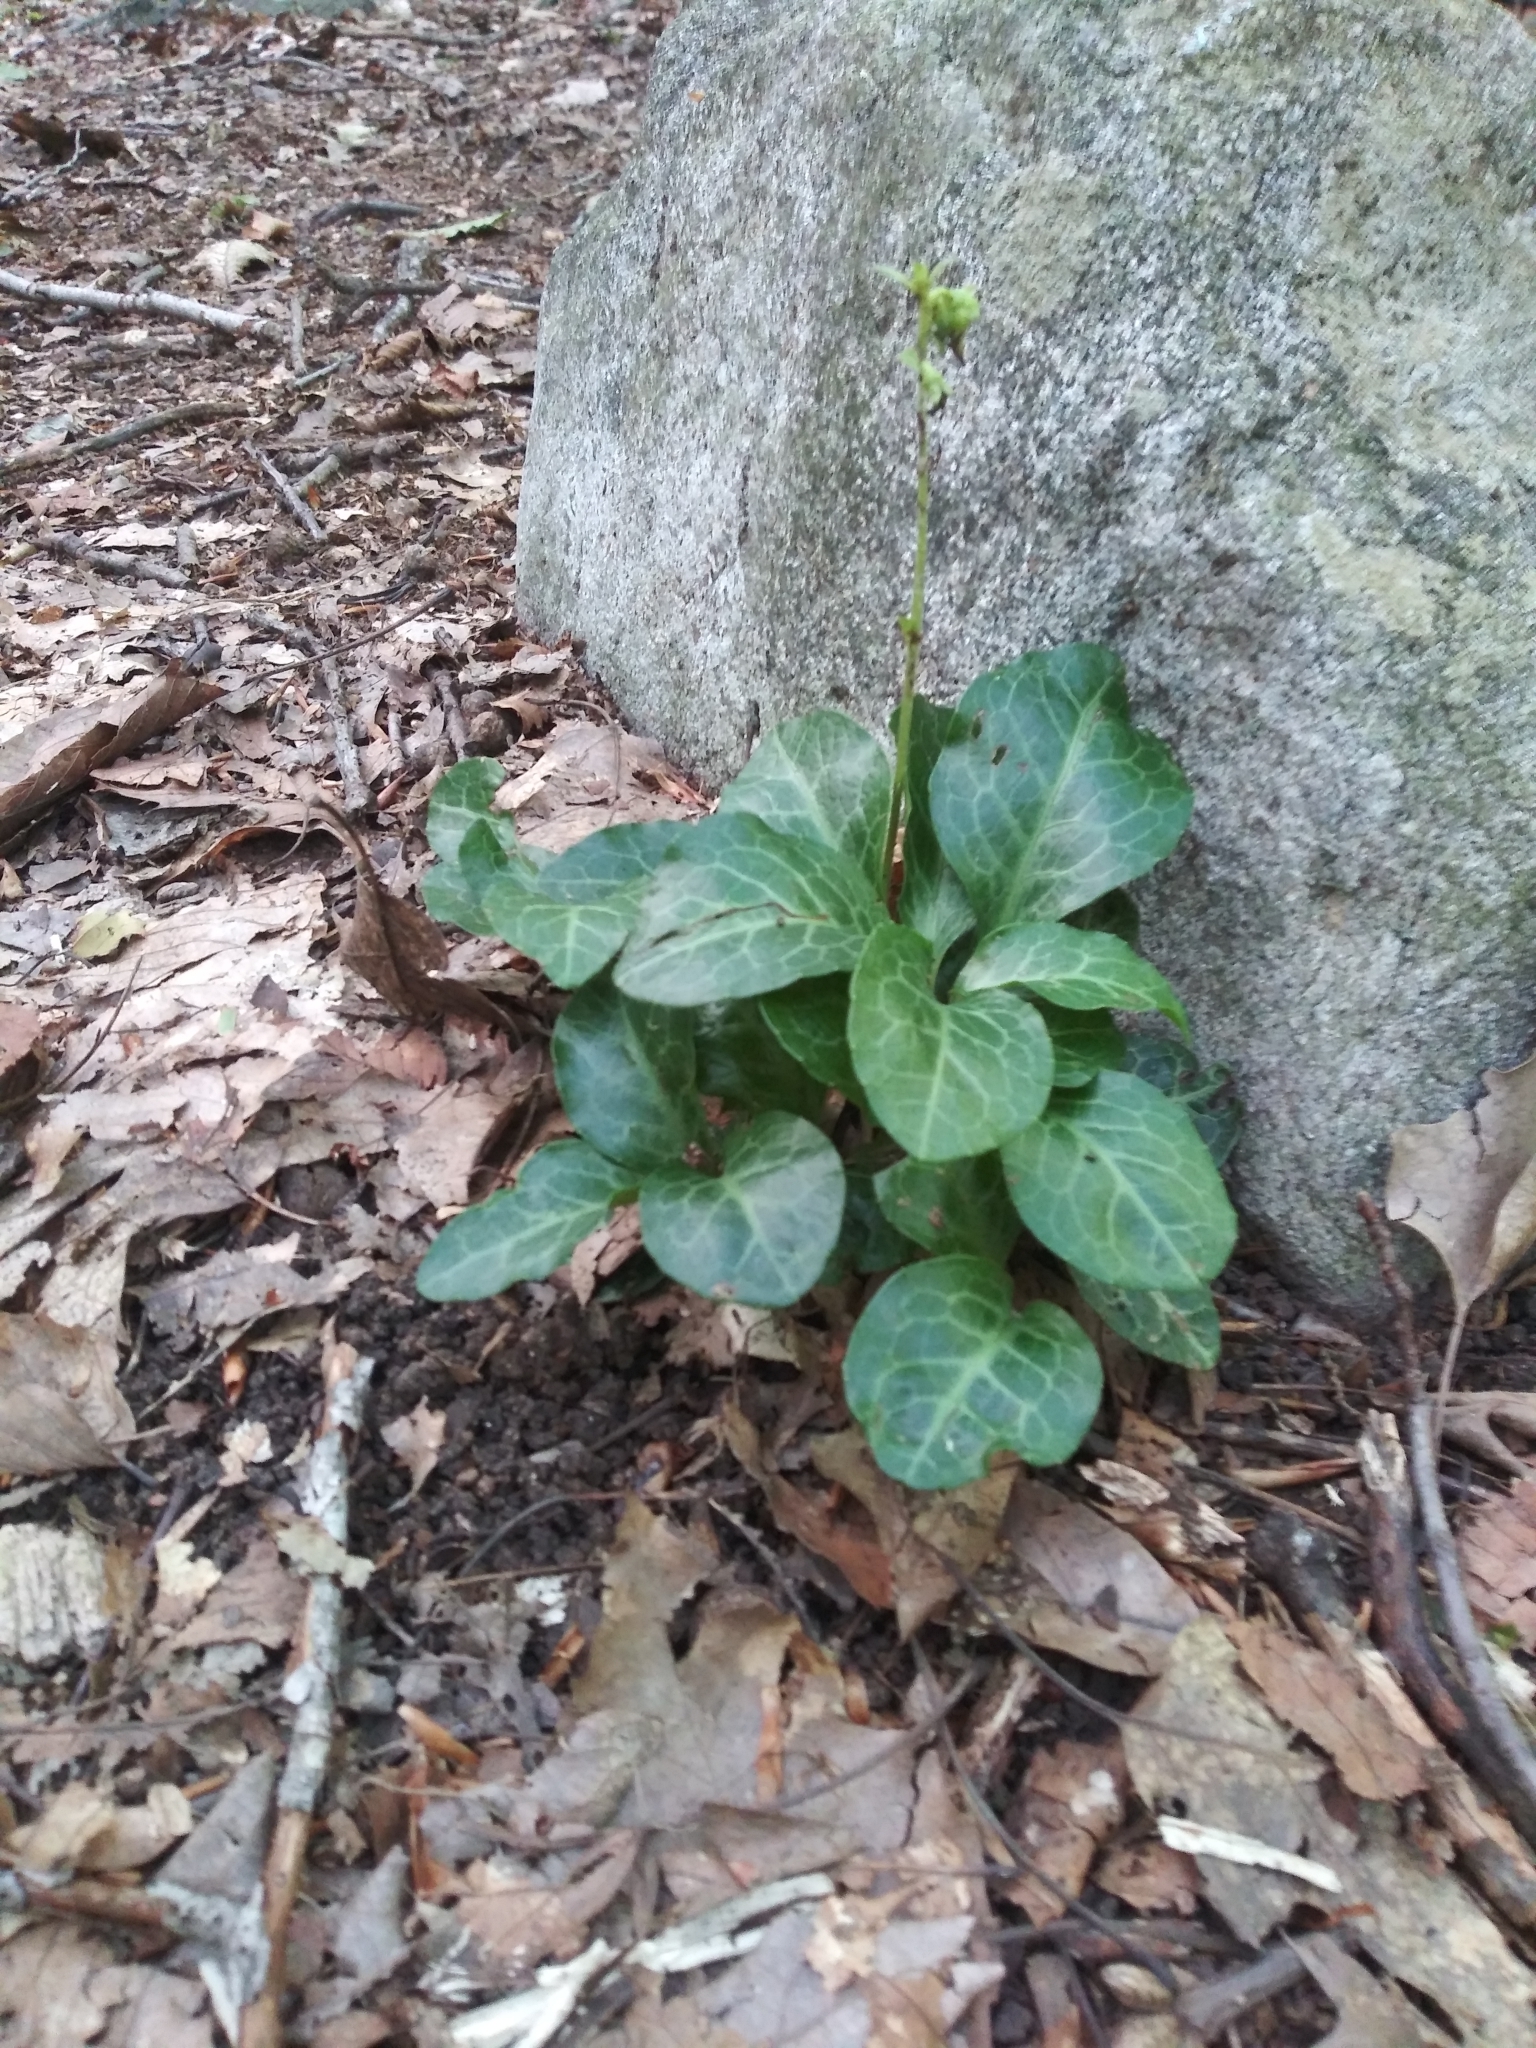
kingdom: Plantae
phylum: Tracheophyta
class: Magnoliopsida
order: Ericales
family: Ericaceae
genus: Pyrola
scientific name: Pyrola americana
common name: American wintergreen
